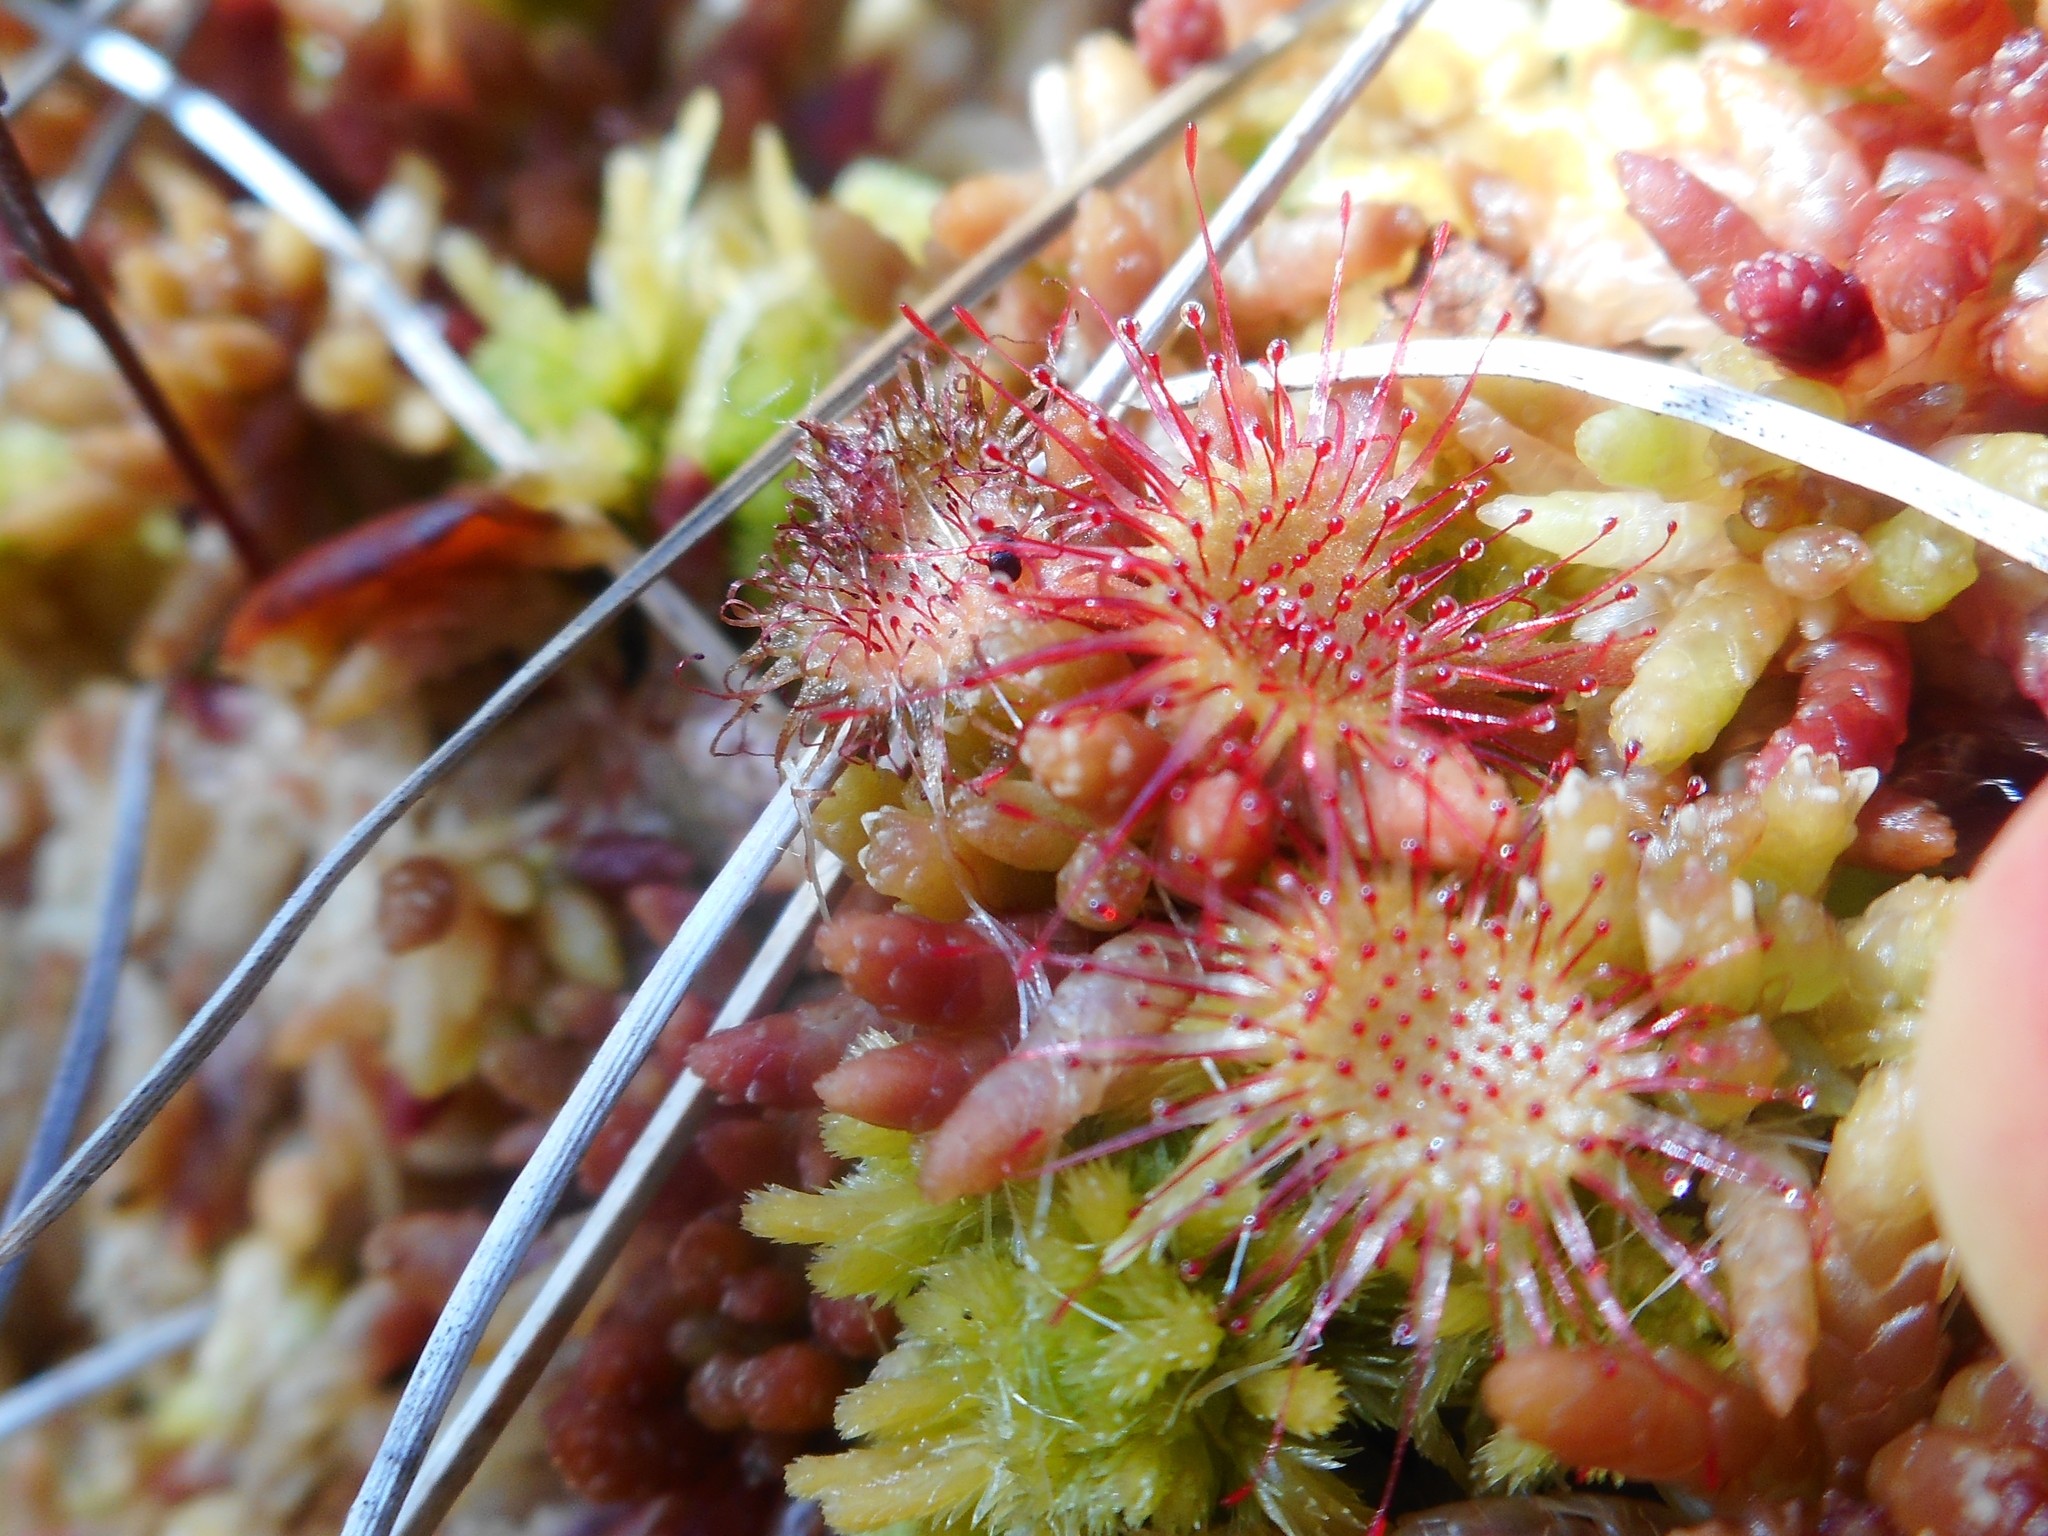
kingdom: Plantae
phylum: Tracheophyta
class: Magnoliopsida
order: Caryophyllales
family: Droseraceae
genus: Drosera
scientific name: Drosera rotundifolia
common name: Round-leaved sundew
